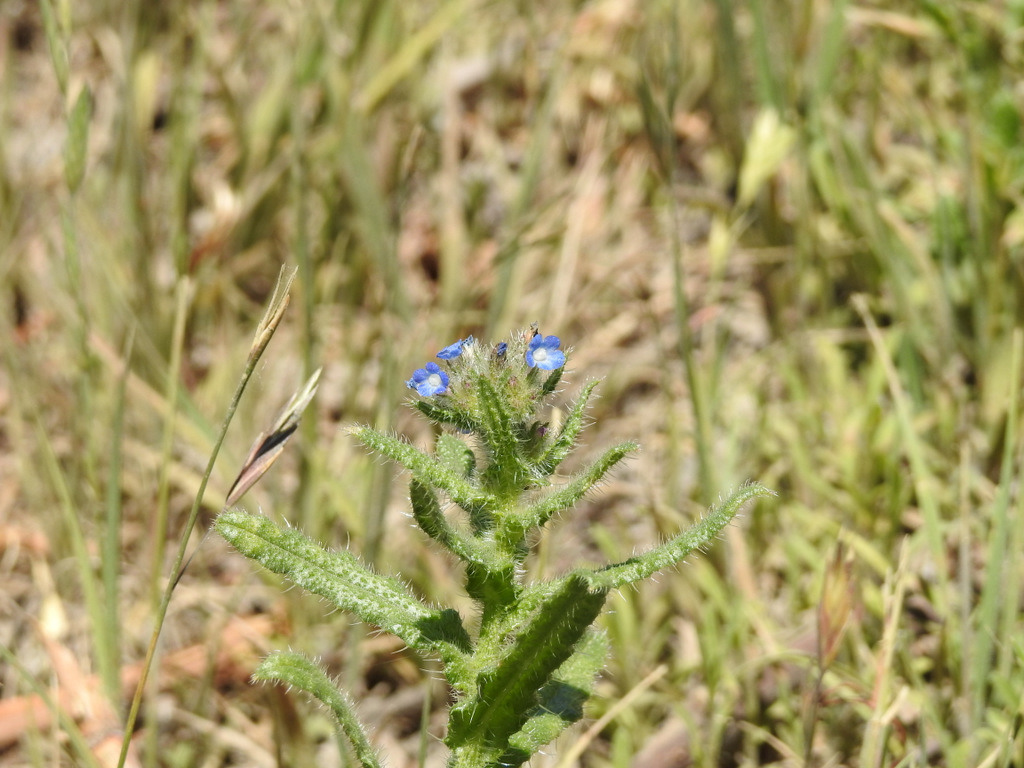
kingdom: Plantae
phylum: Tracheophyta
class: Magnoliopsida
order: Boraginales
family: Boraginaceae
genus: Lycopsis
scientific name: Lycopsis arvensis
